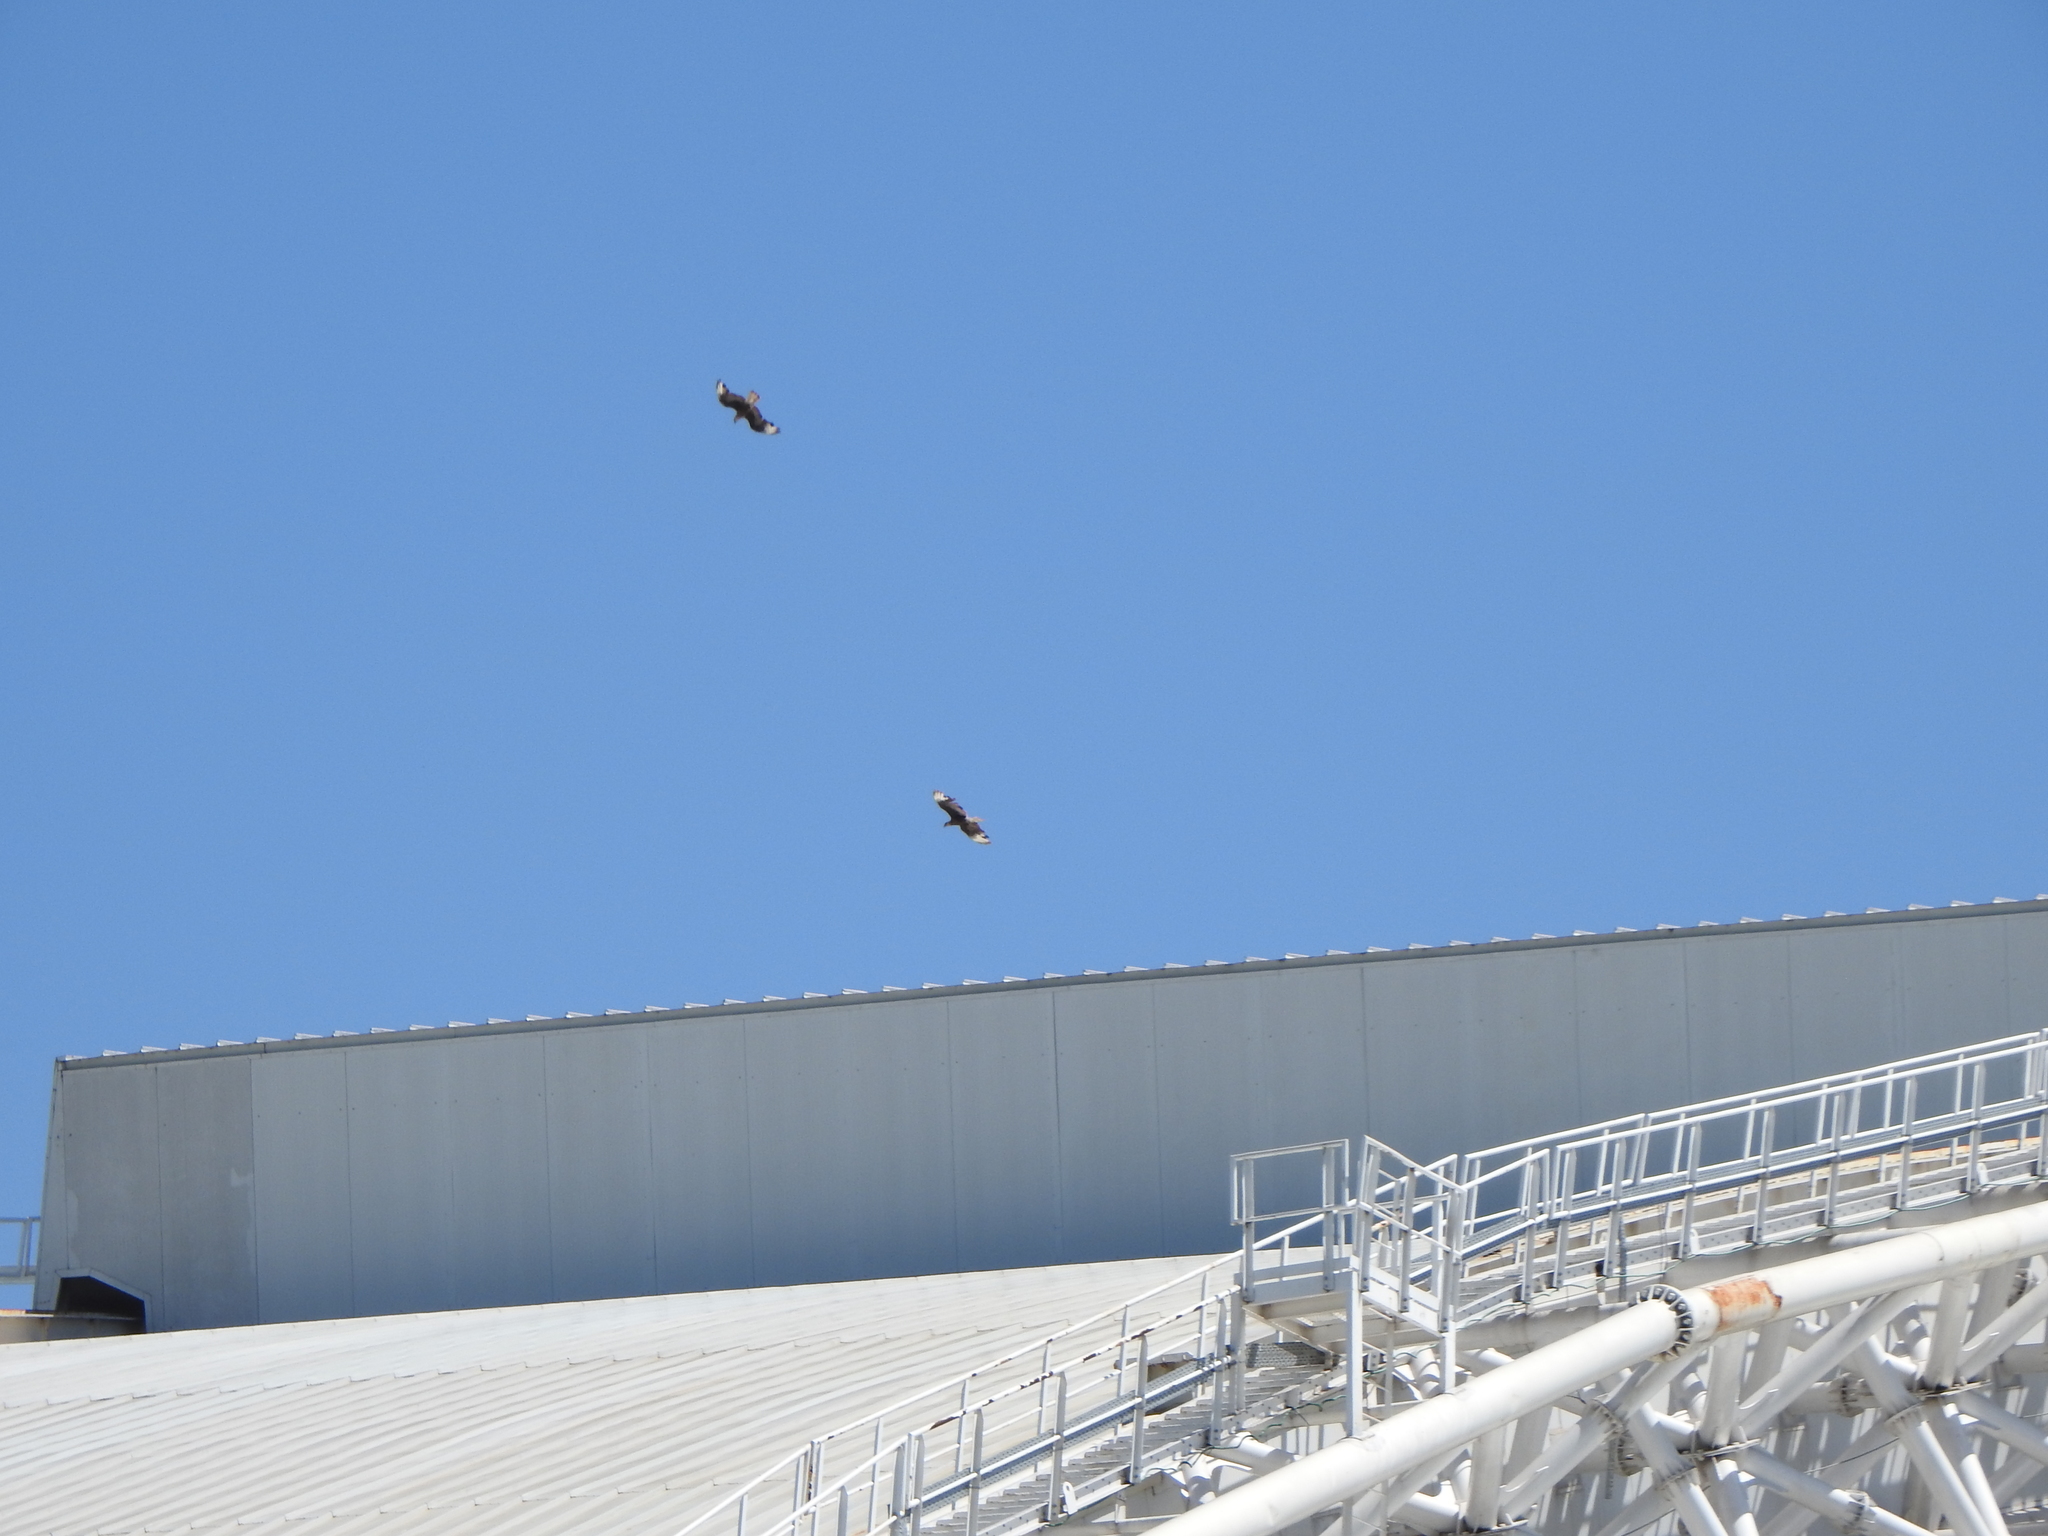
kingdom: Animalia
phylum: Chordata
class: Aves
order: Falconiformes
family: Falconidae
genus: Caracara
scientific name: Caracara plancus
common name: Southern caracara
